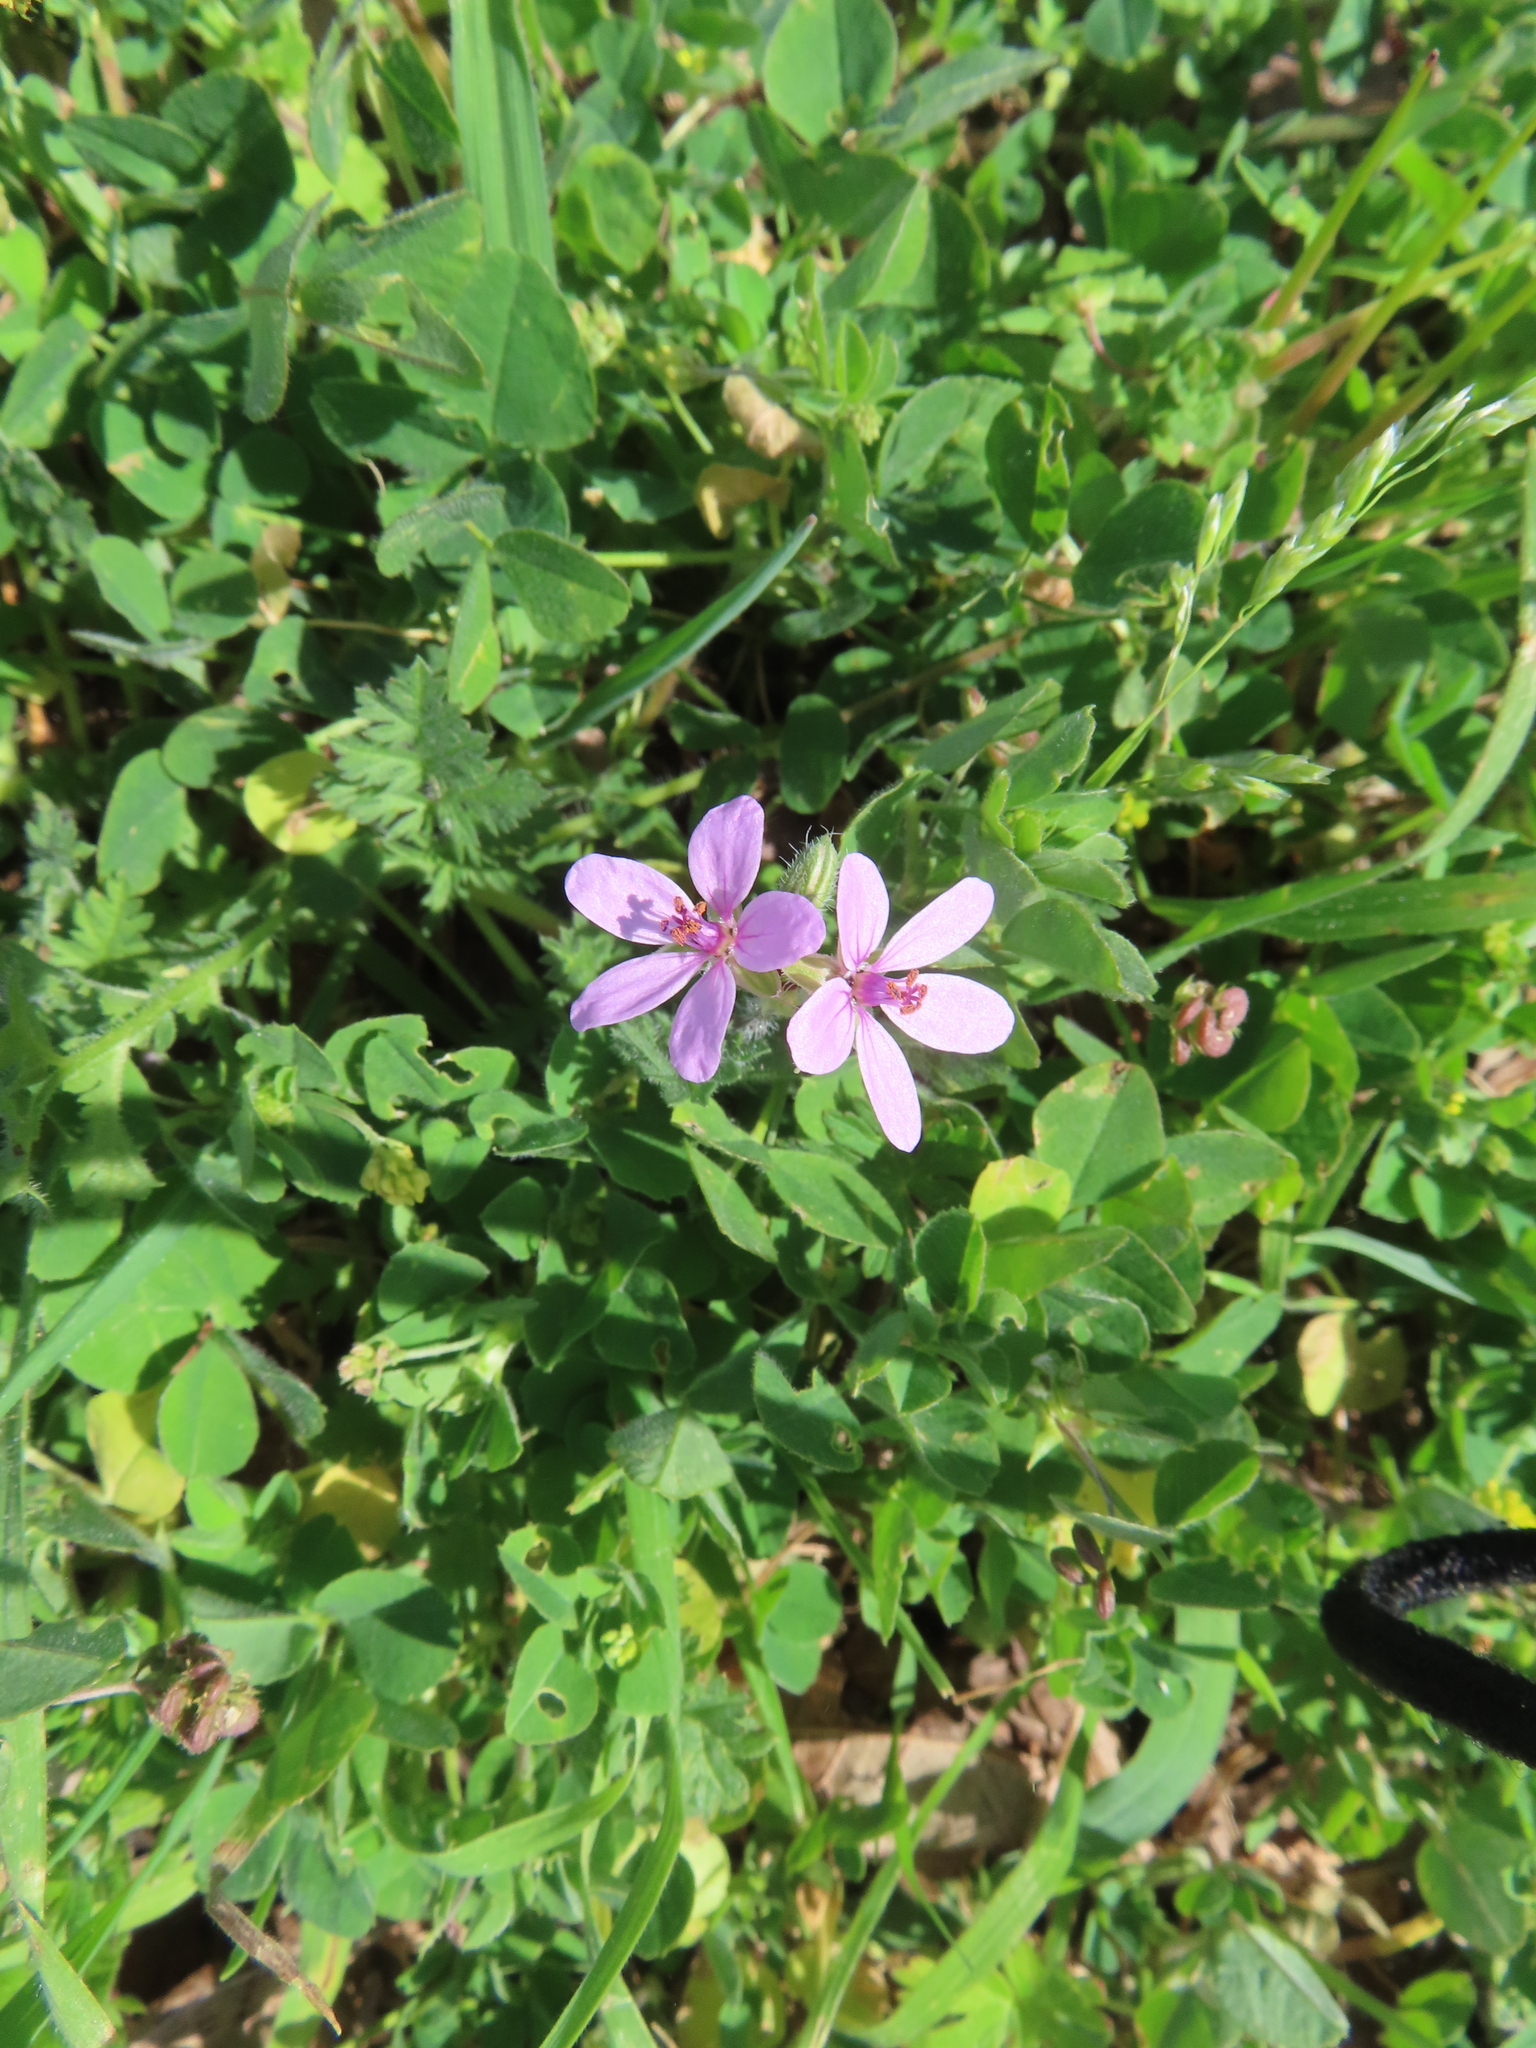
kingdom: Plantae
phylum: Tracheophyta
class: Magnoliopsida
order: Geraniales
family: Geraniaceae
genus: Erodium
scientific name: Erodium cicutarium
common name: Common stork's-bill
